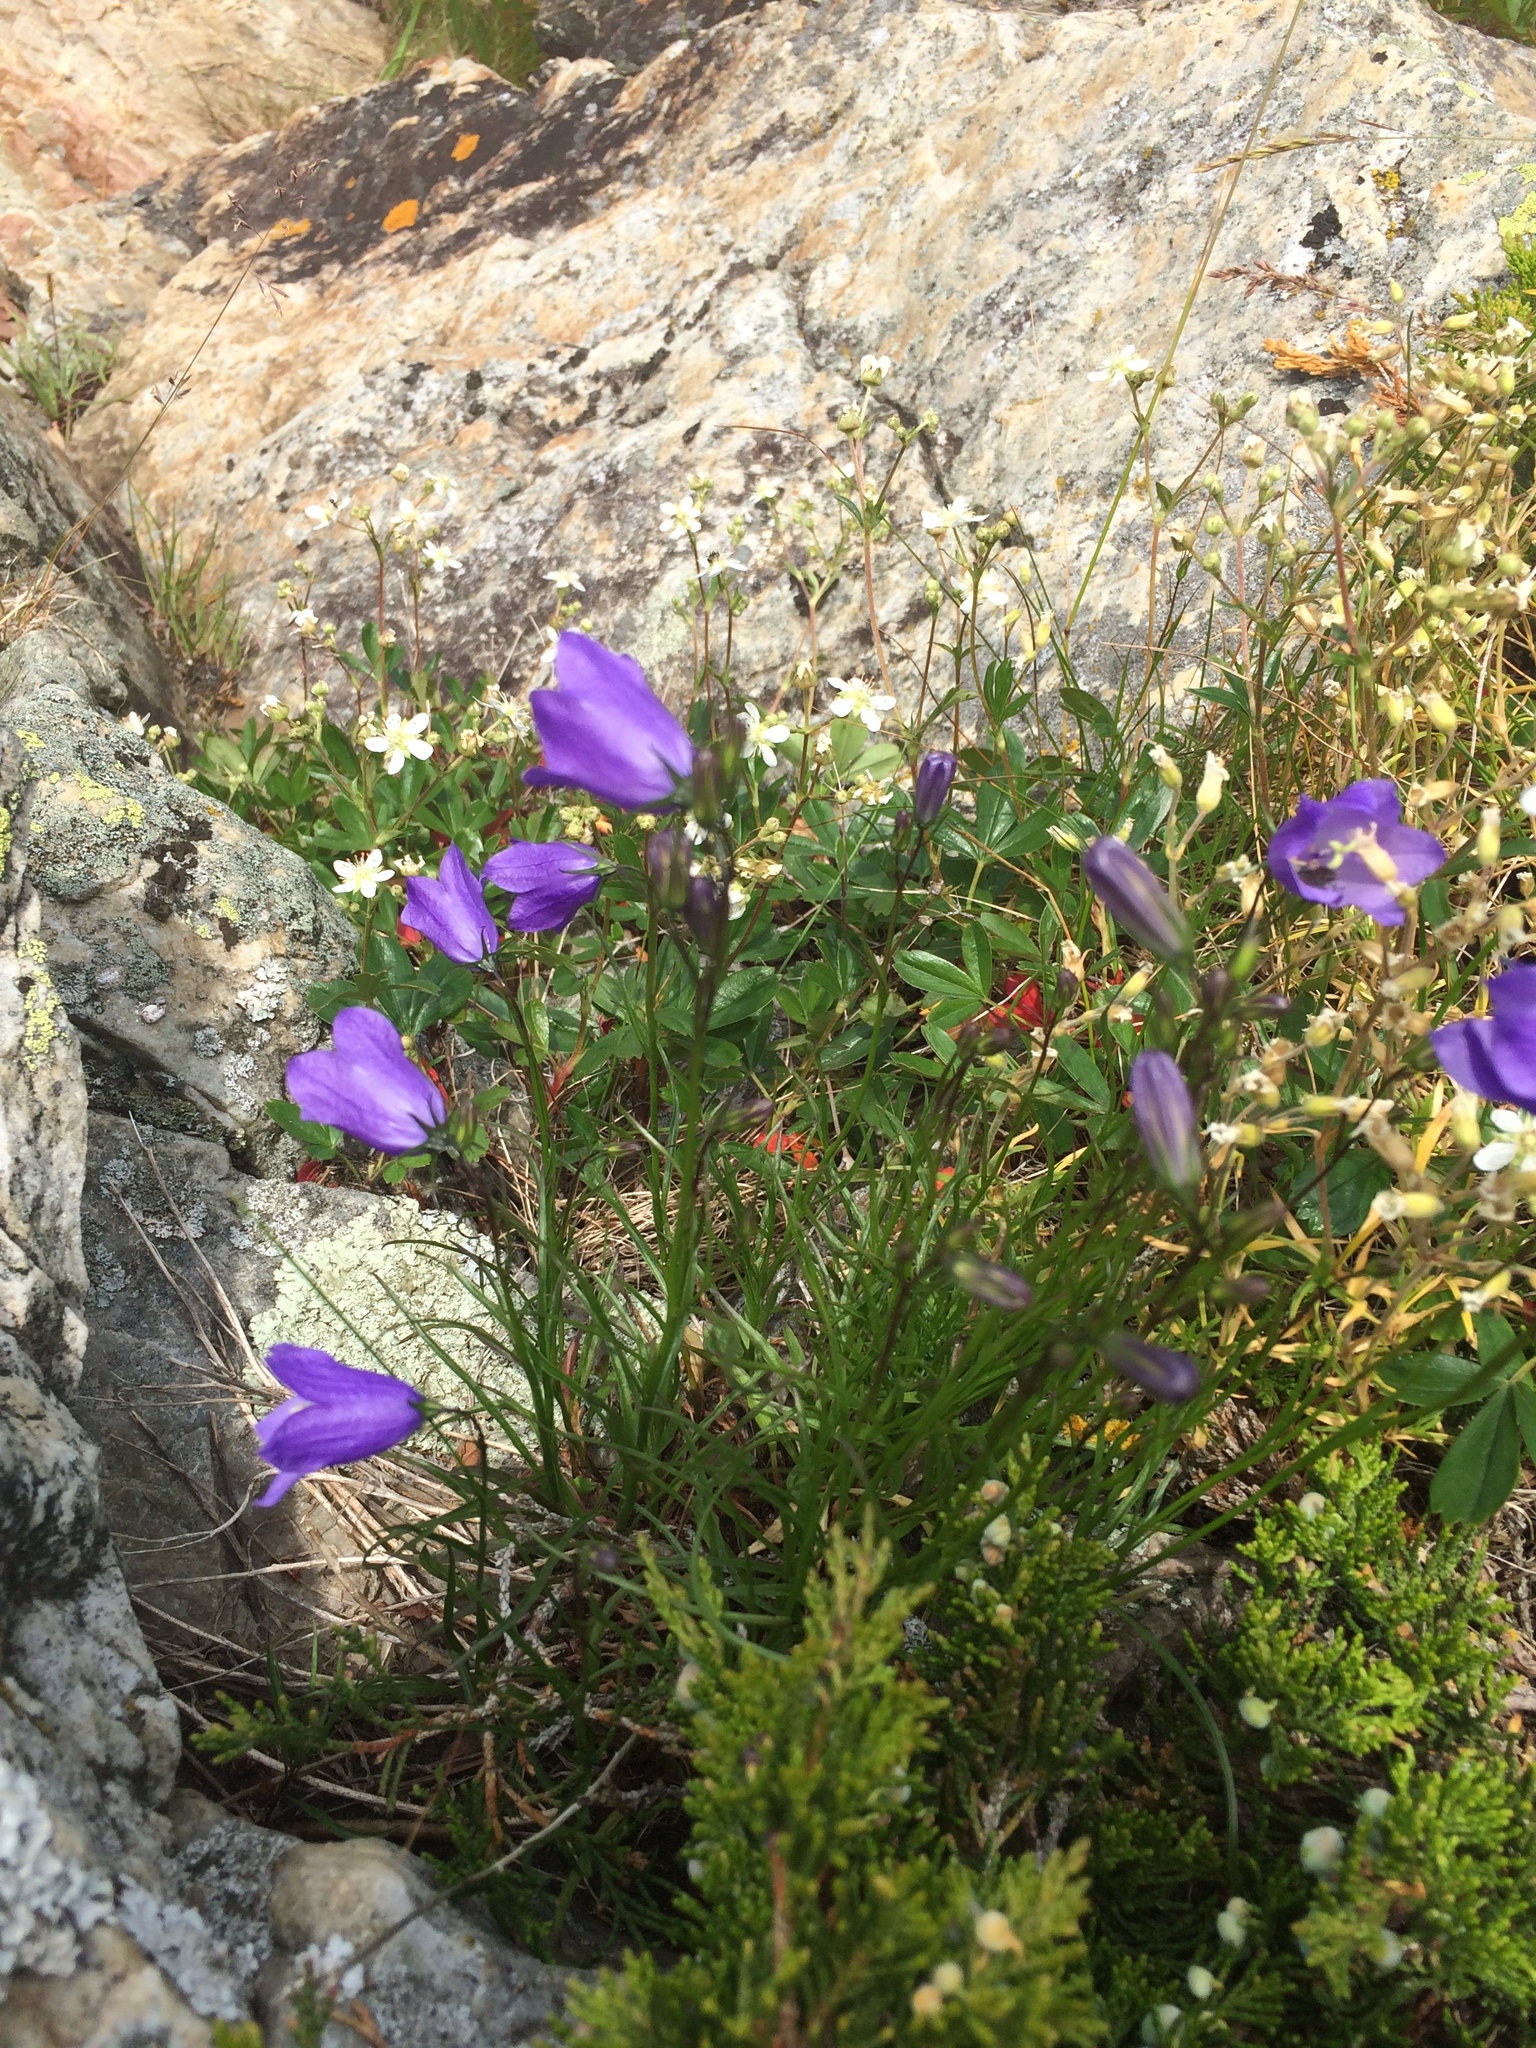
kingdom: Plantae
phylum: Tracheophyta
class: Magnoliopsida
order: Asterales
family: Campanulaceae
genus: Campanula
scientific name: Campanula intercedens
